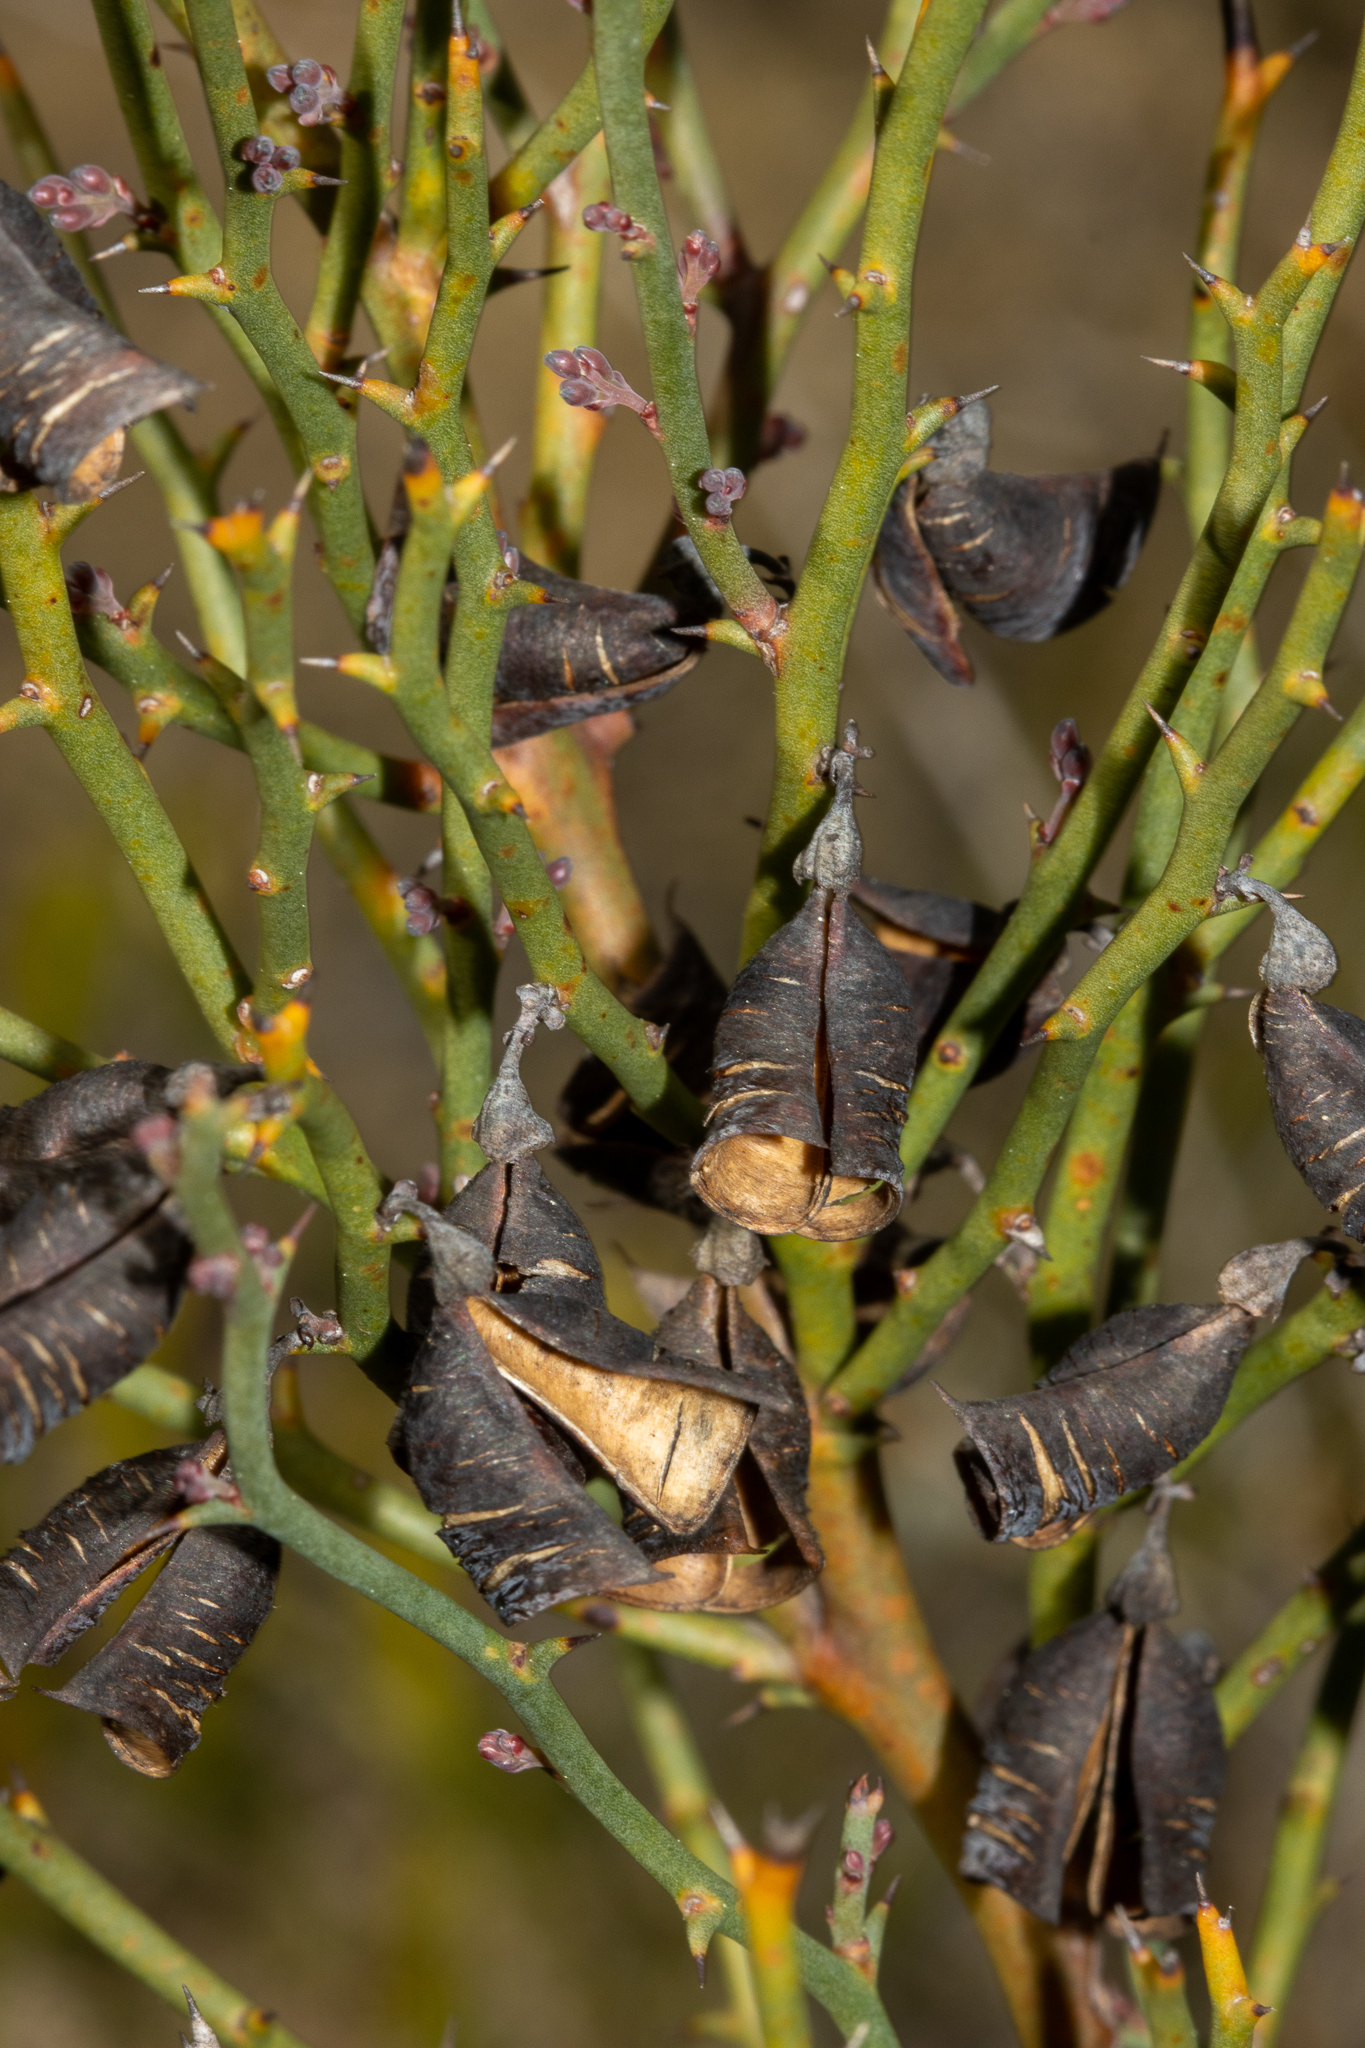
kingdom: Plantae
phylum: Tracheophyta
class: Magnoliopsida
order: Fabales
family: Fabaceae
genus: Daviesia
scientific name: Daviesia brevifolia
